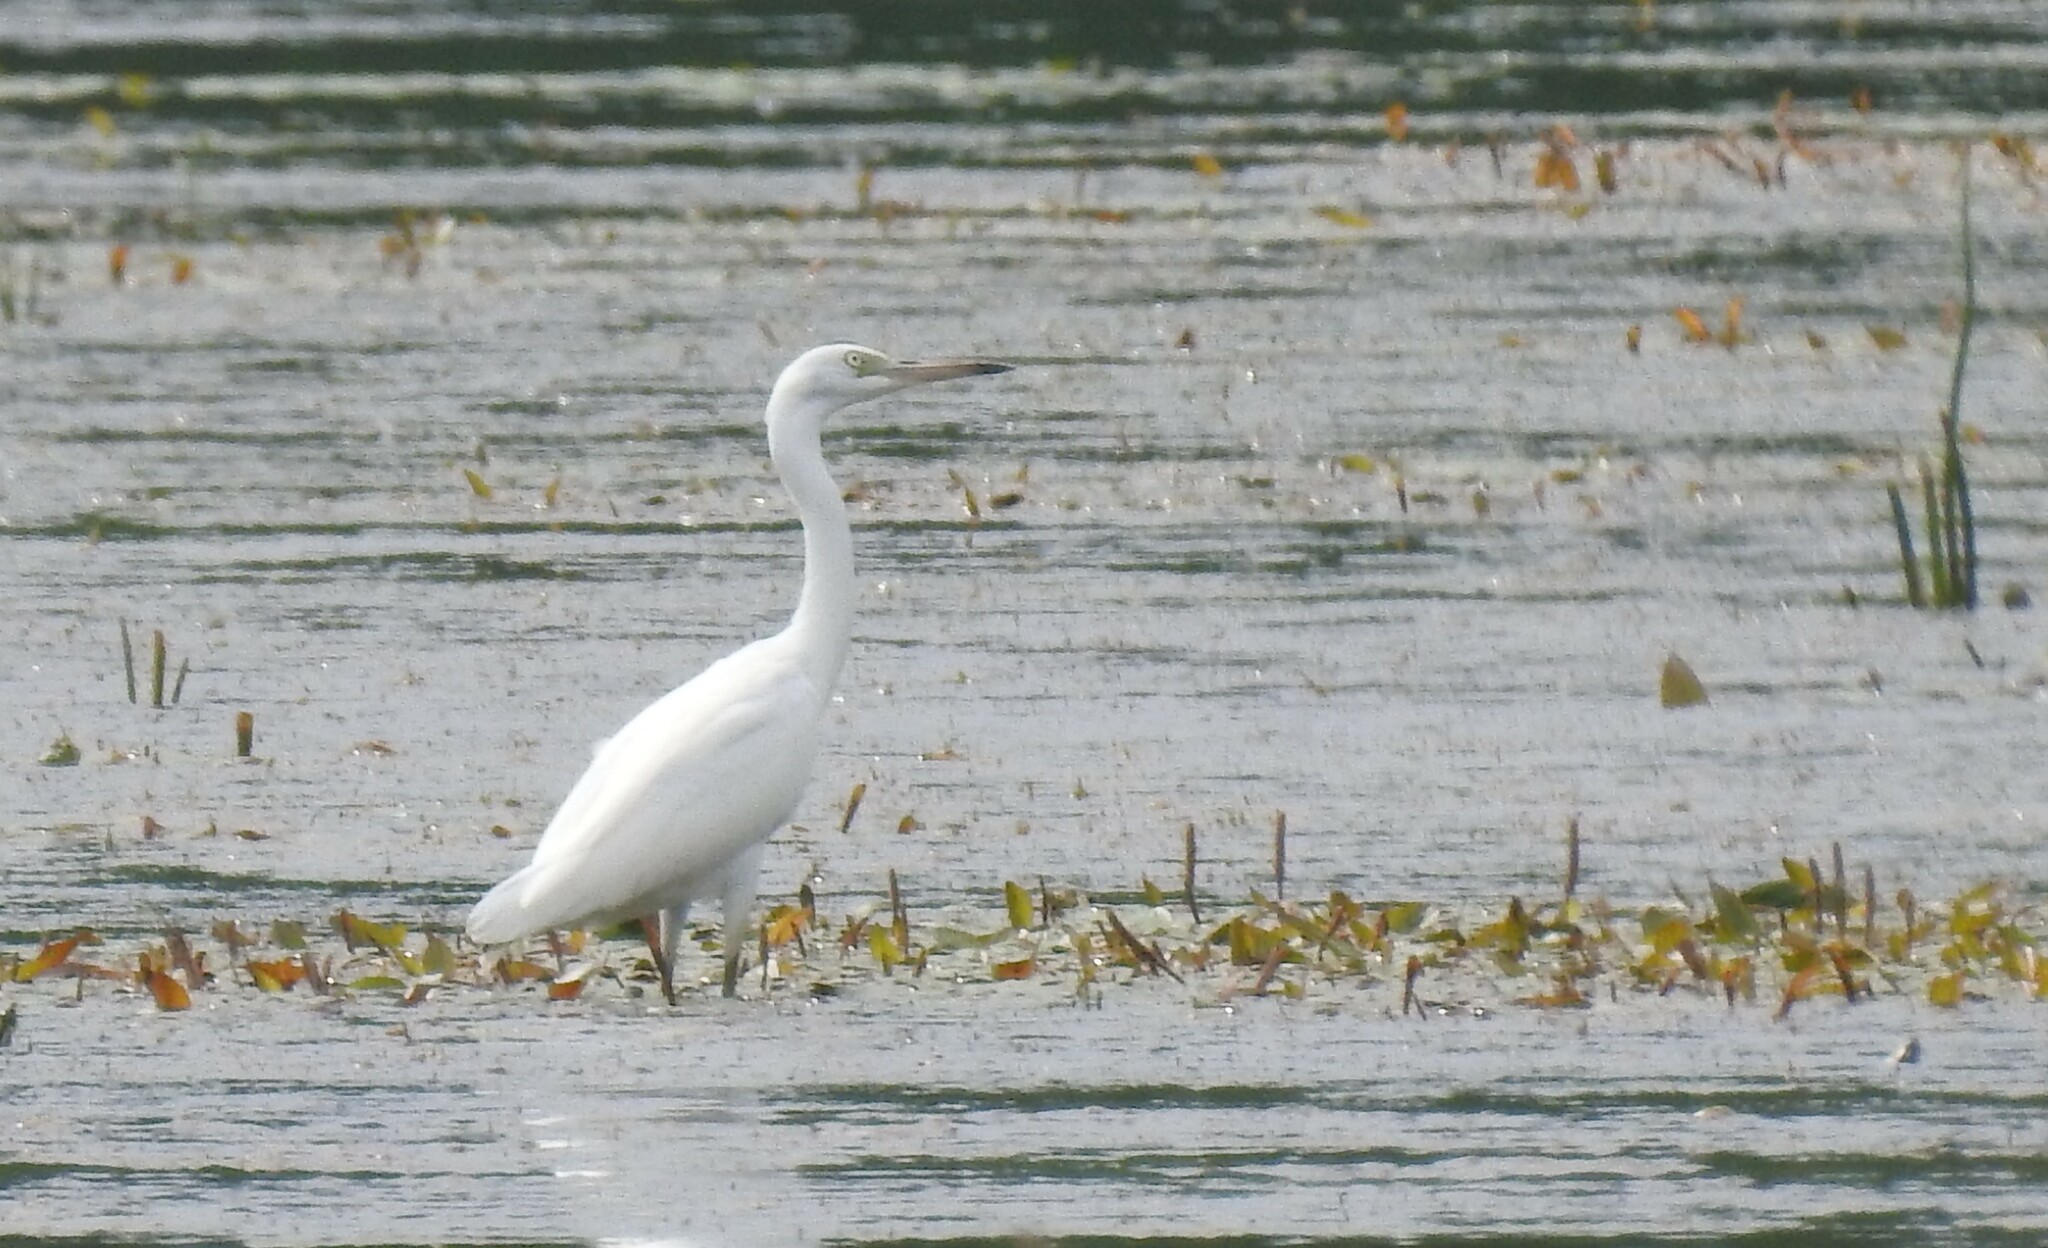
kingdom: Animalia
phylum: Chordata
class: Aves
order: Pelecaniformes
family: Ardeidae
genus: Egretta
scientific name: Egretta caerulea
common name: Little blue heron
